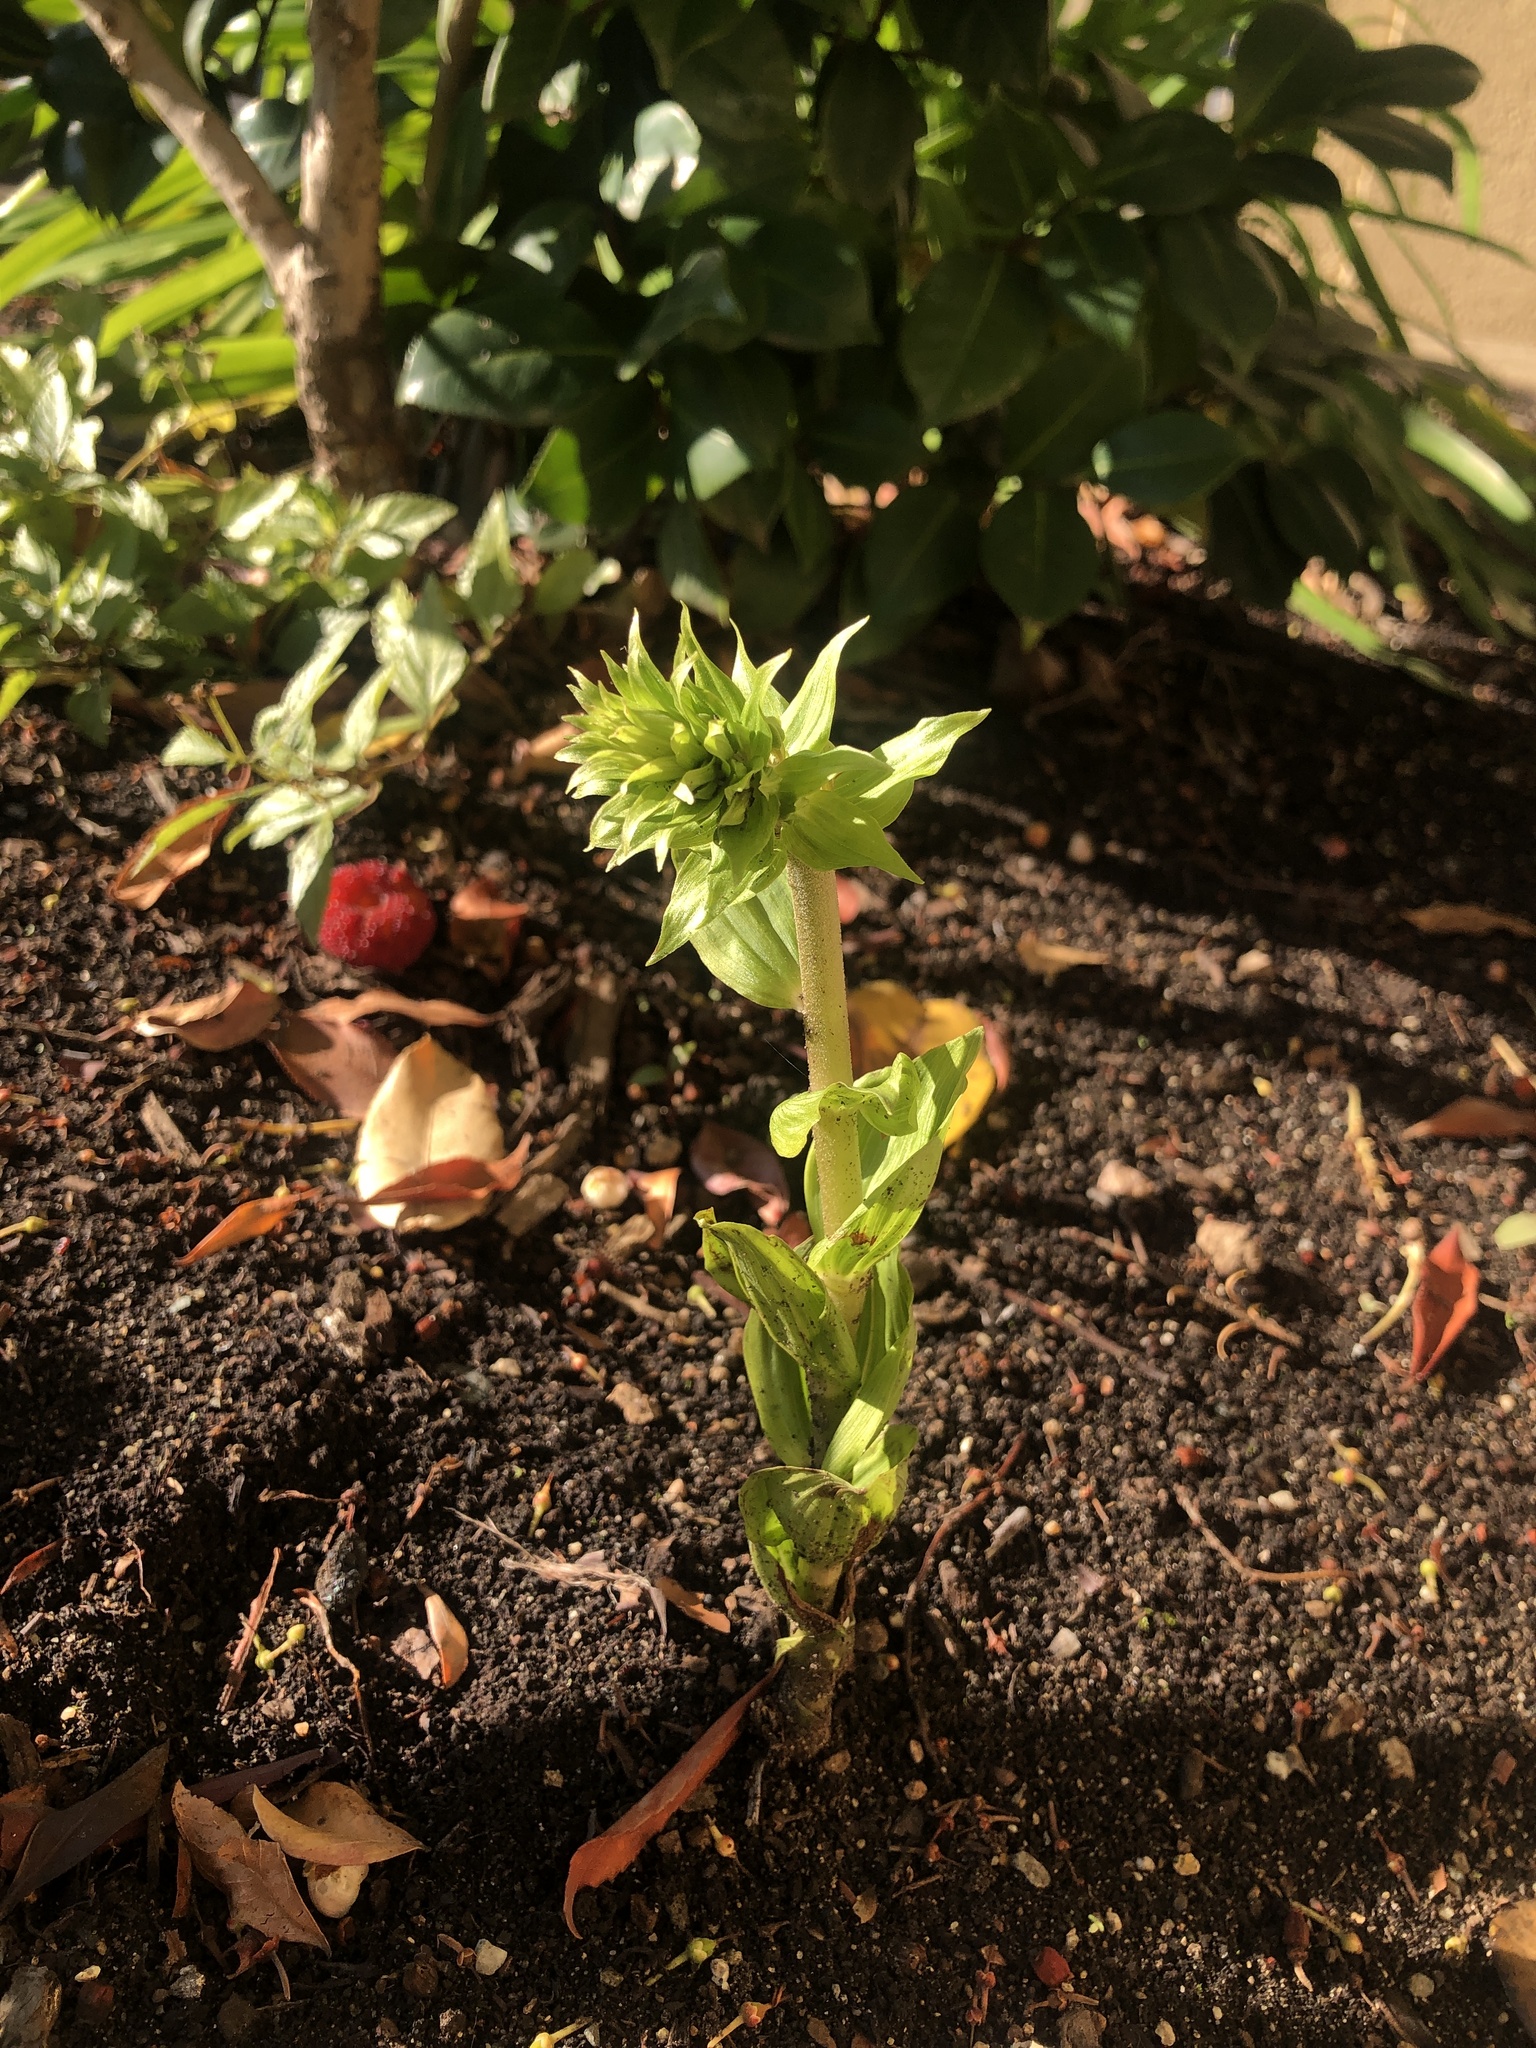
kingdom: Plantae
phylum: Tracheophyta
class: Liliopsida
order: Asparagales
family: Orchidaceae
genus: Epipactis
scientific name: Epipactis helleborine
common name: Broad-leaved helleborine
